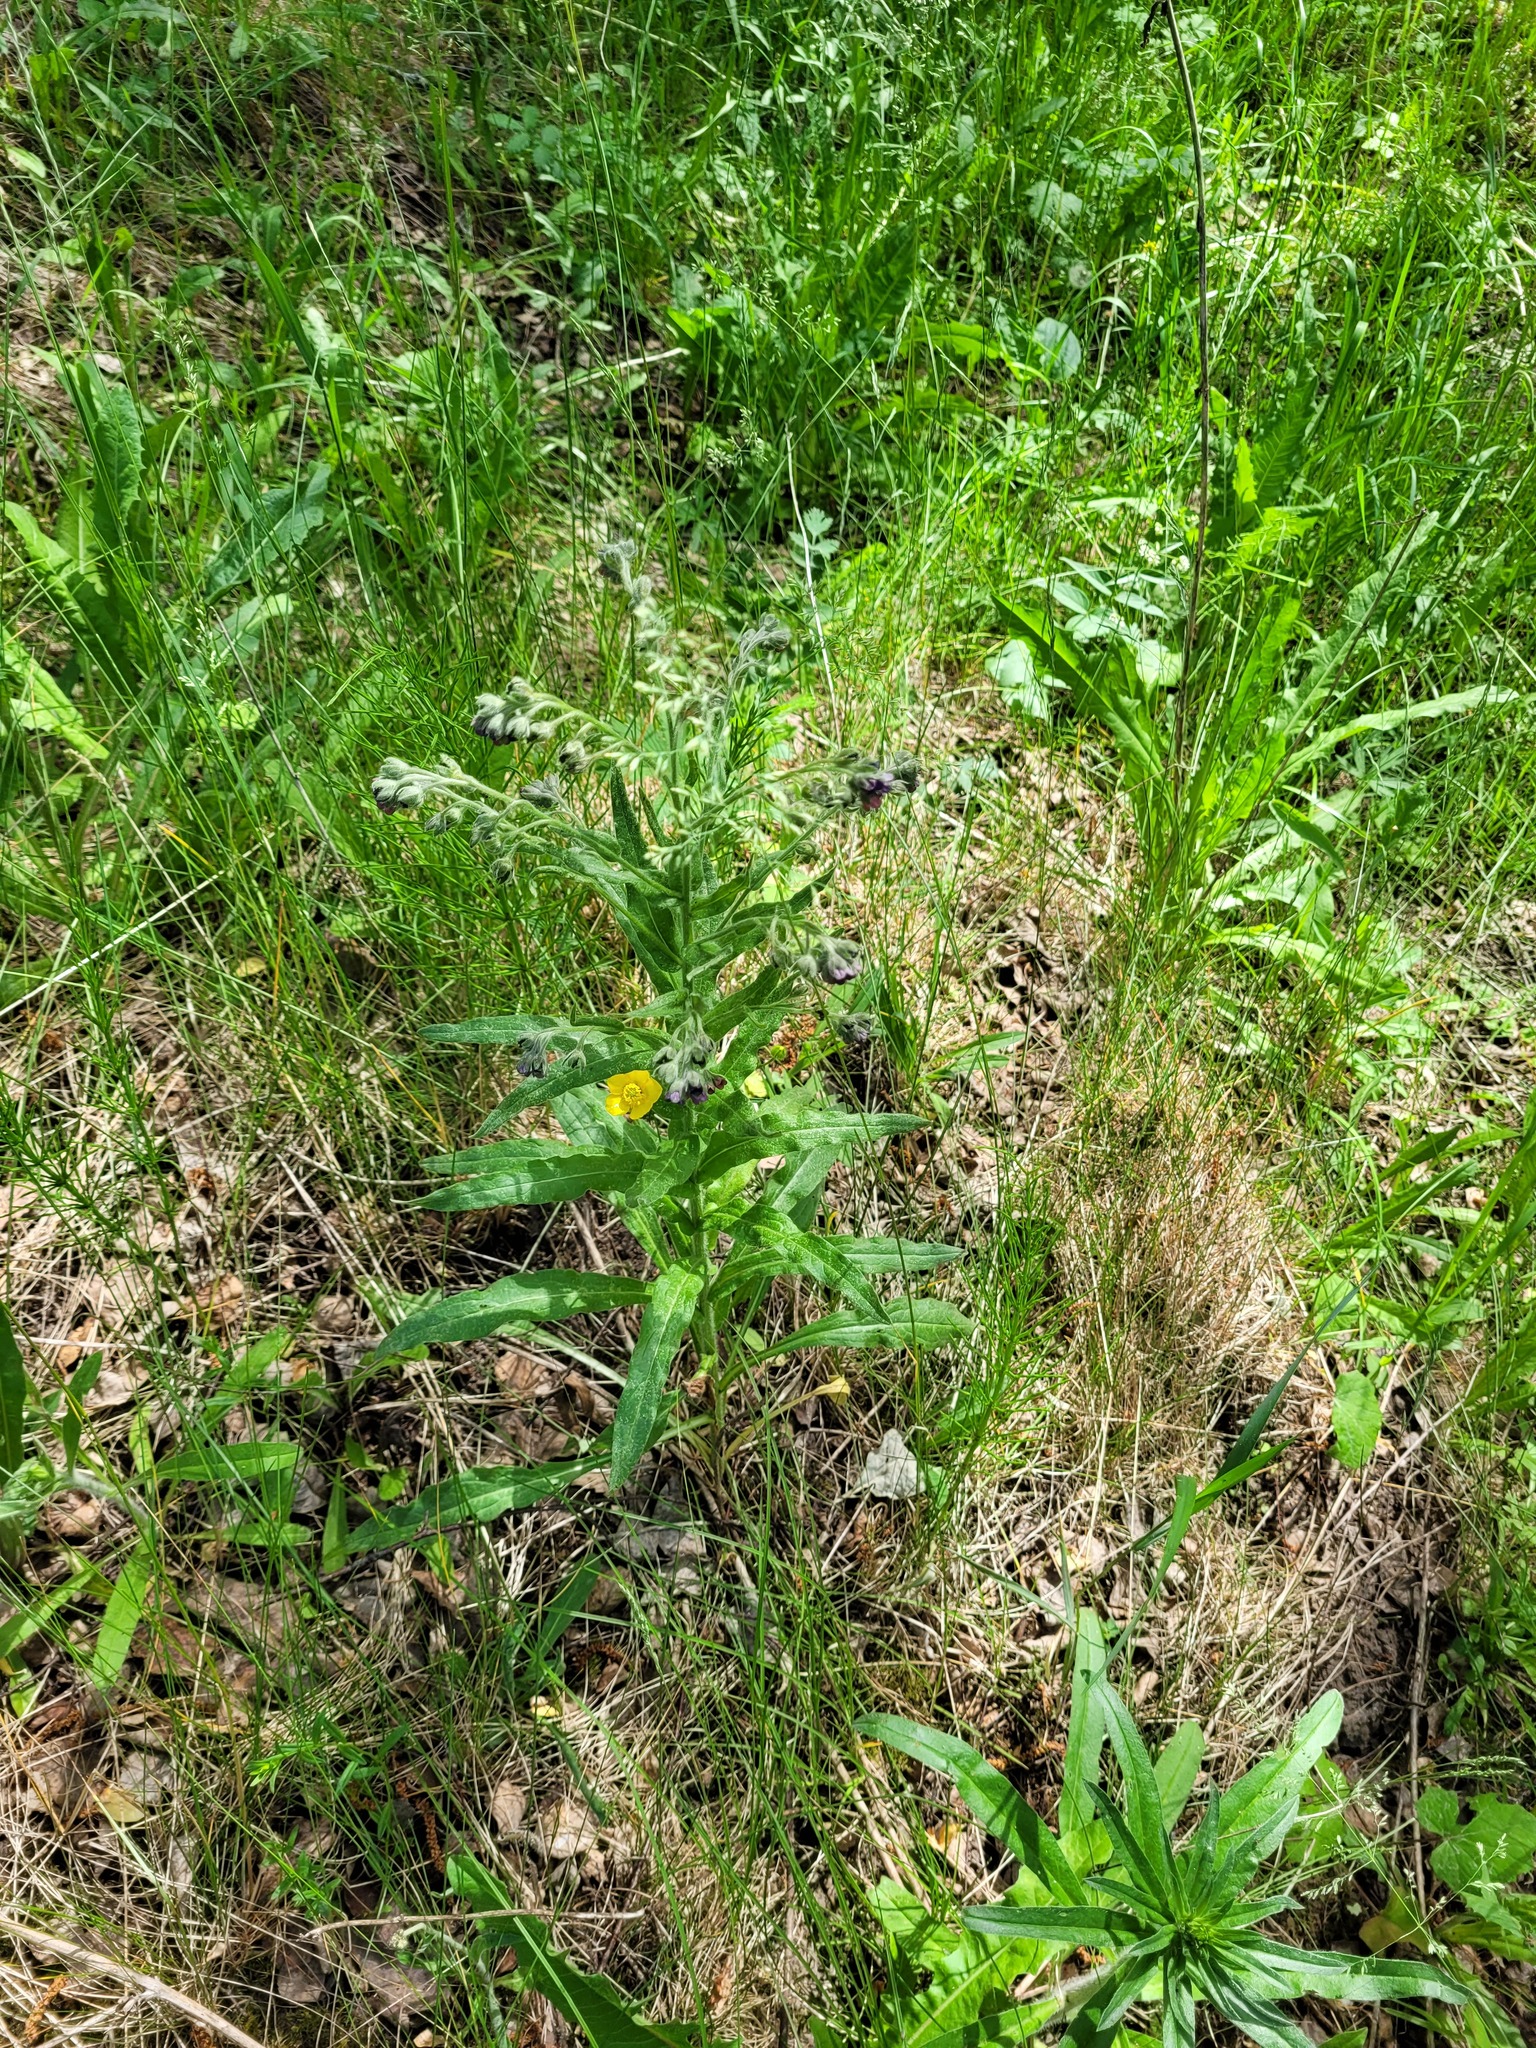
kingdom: Plantae
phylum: Tracheophyta
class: Magnoliopsida
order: Boraginales
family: Boraginaceae
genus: Cynoglossum
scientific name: Cynoglossum officinale
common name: Hound's-tongue
